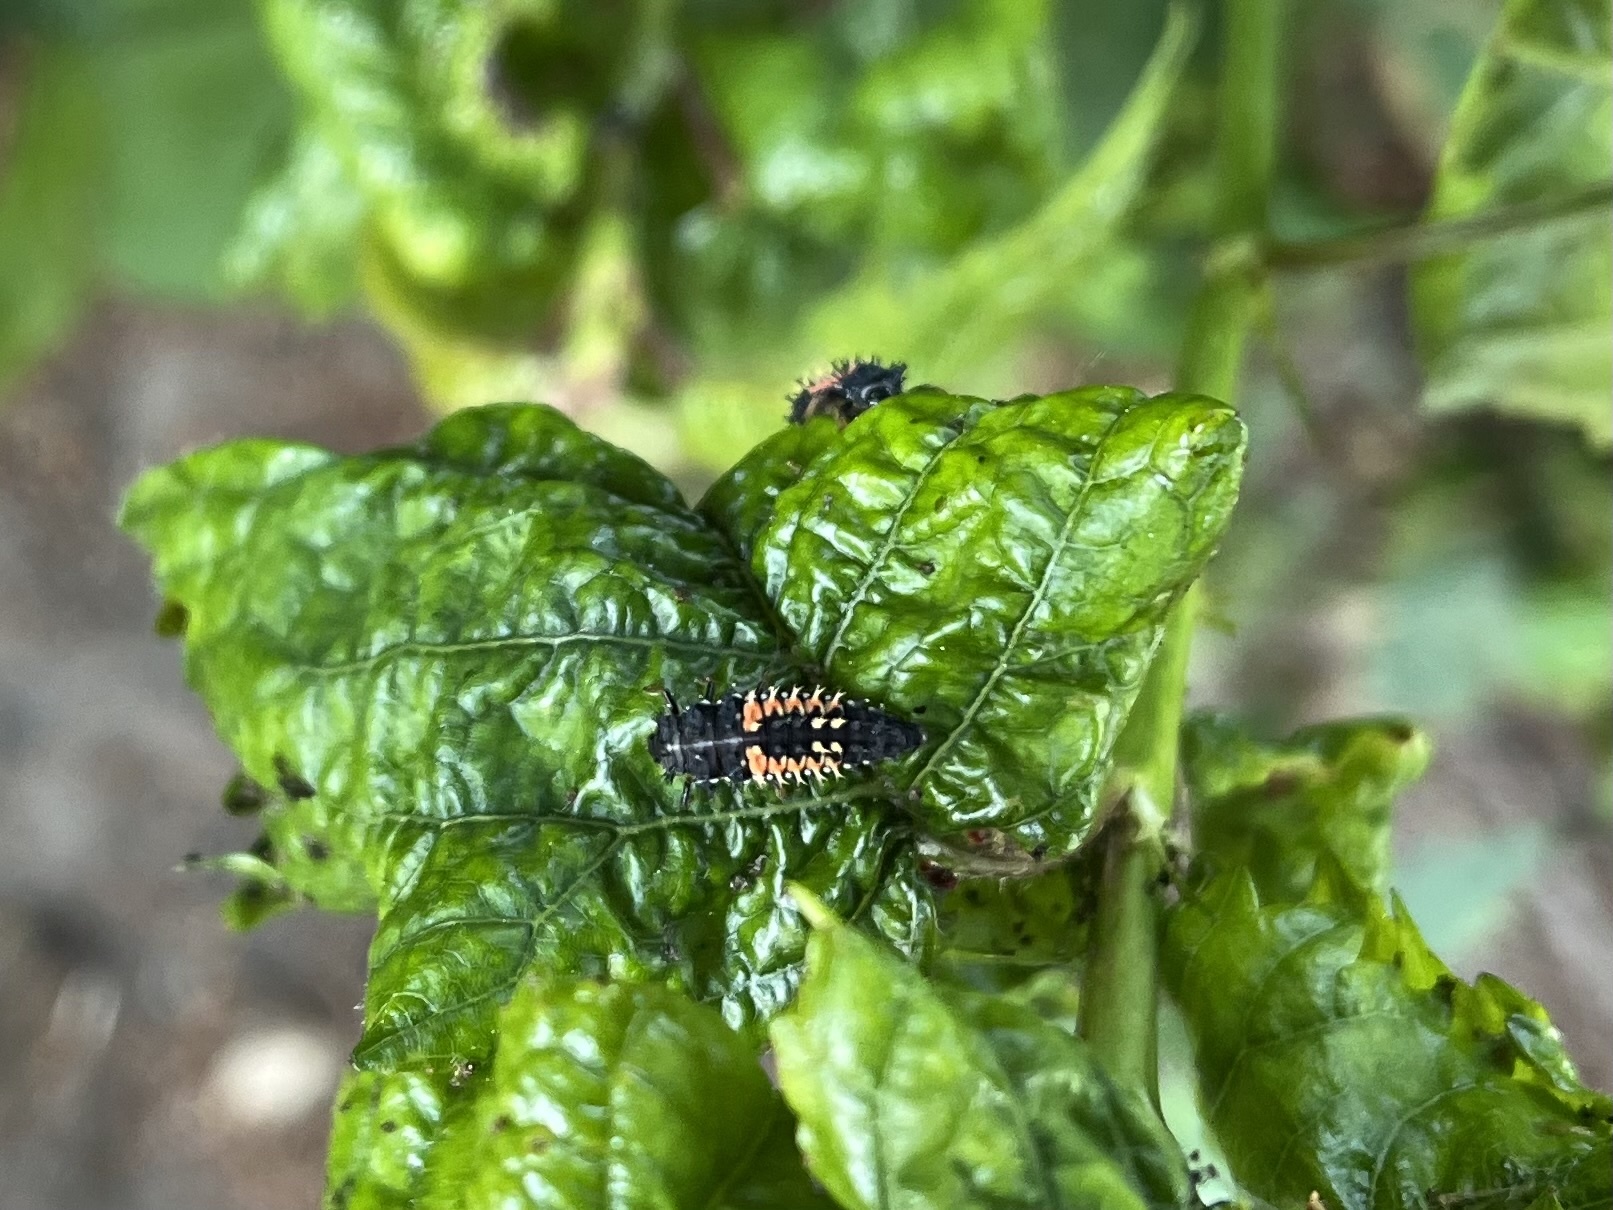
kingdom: Animalia
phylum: Arthropoda
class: Insecta
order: Coleoptera
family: Coccinellidae
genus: Harmonia
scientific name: Harmonia axyridis
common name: Harlequin ladybird
